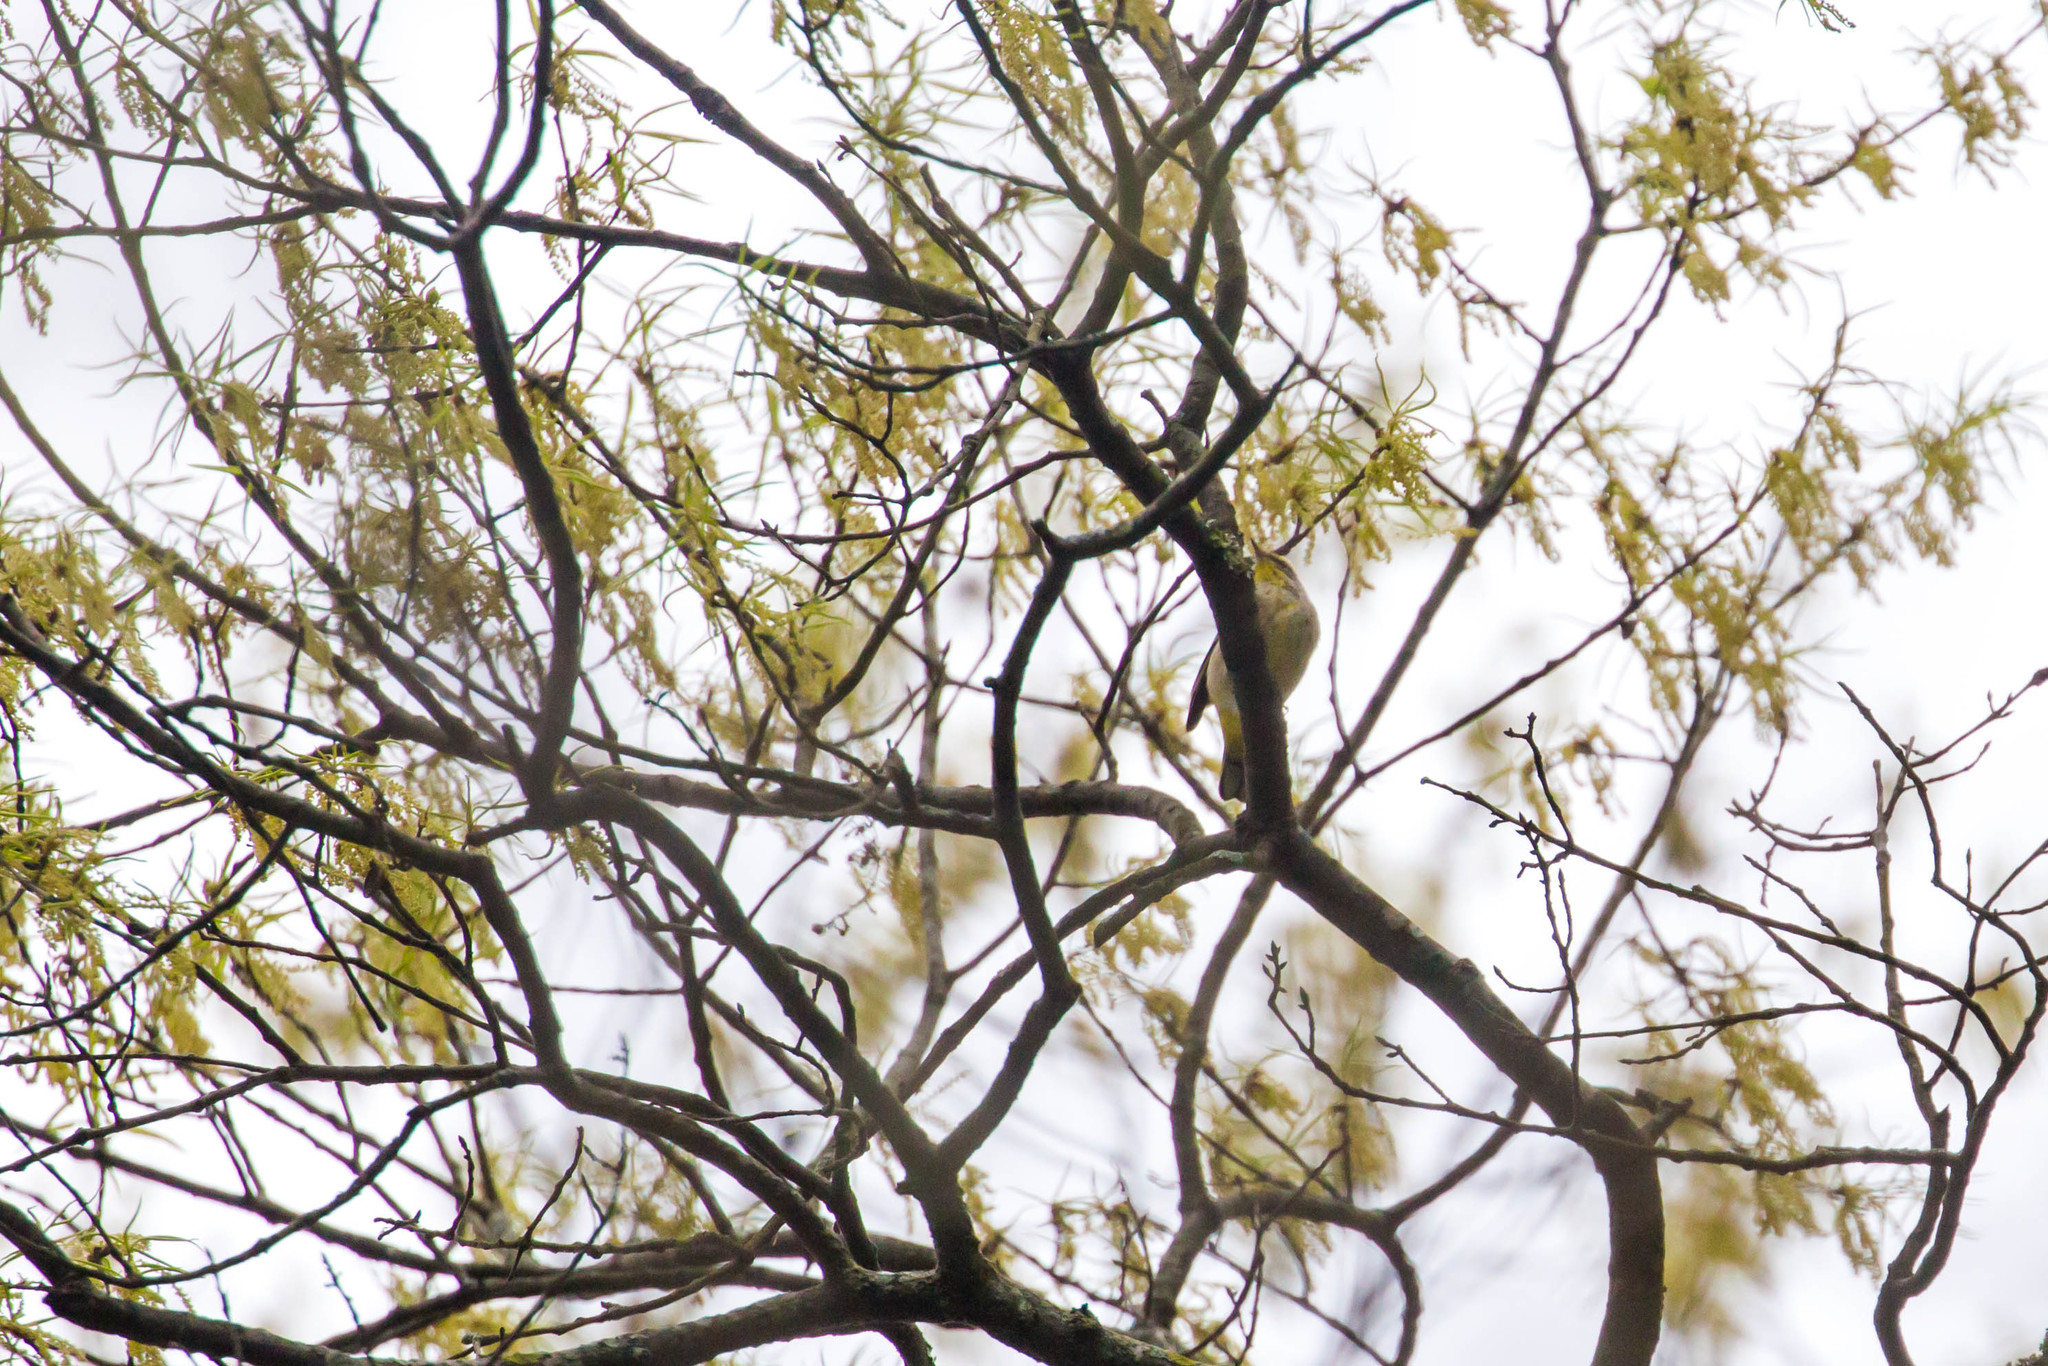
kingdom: Animalia
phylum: Chordata
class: Aves
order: Passeriformes
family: Parulidae
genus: Setophaga
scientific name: Setophaga palmarum
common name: Palm warbler
